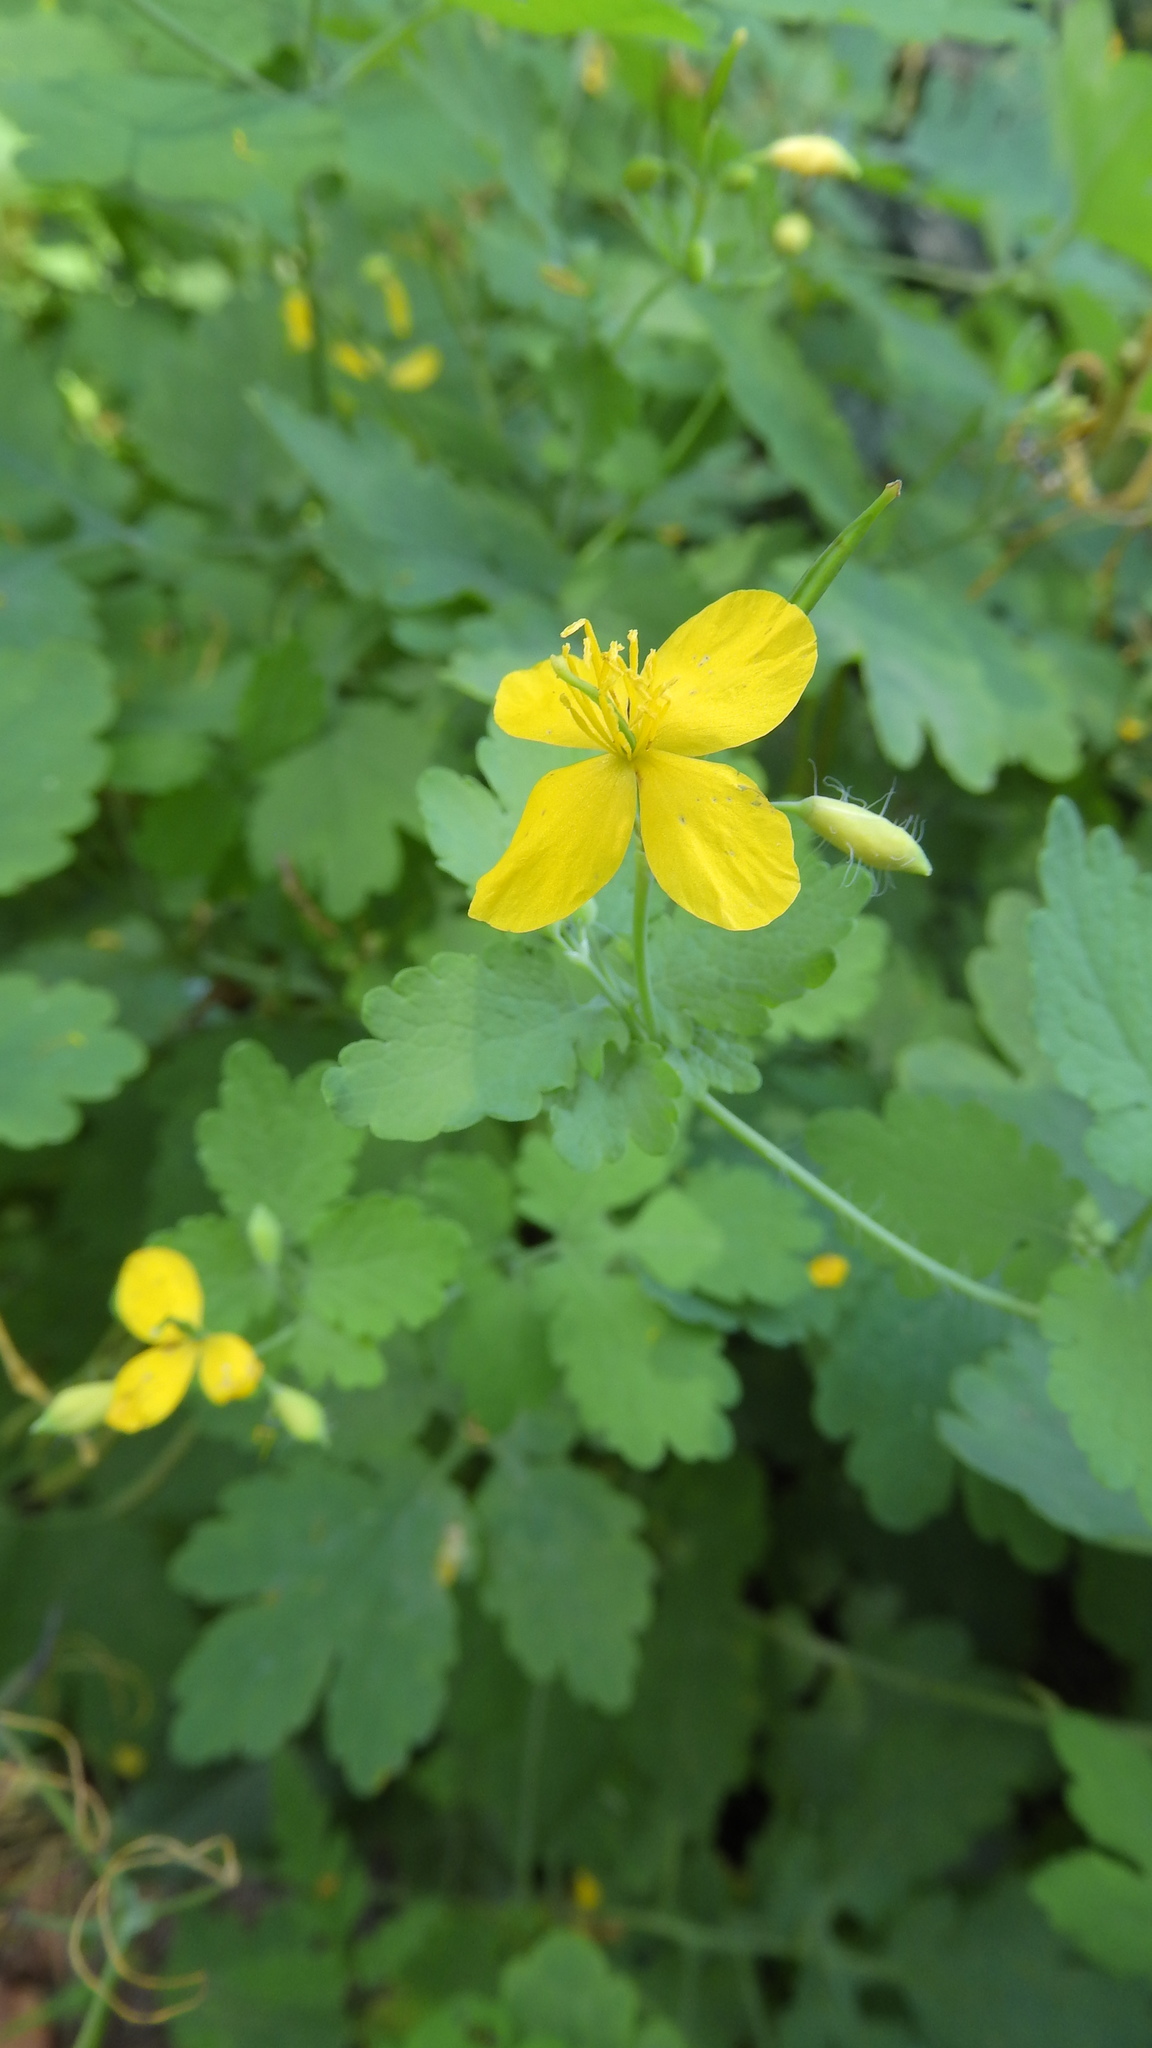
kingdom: Plantae
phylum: Tracheophyta
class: Magnoliopsida
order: Ranunculales
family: Papaveraceae
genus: Chelidonium
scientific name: Chelidonium majus
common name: Greater celandine
